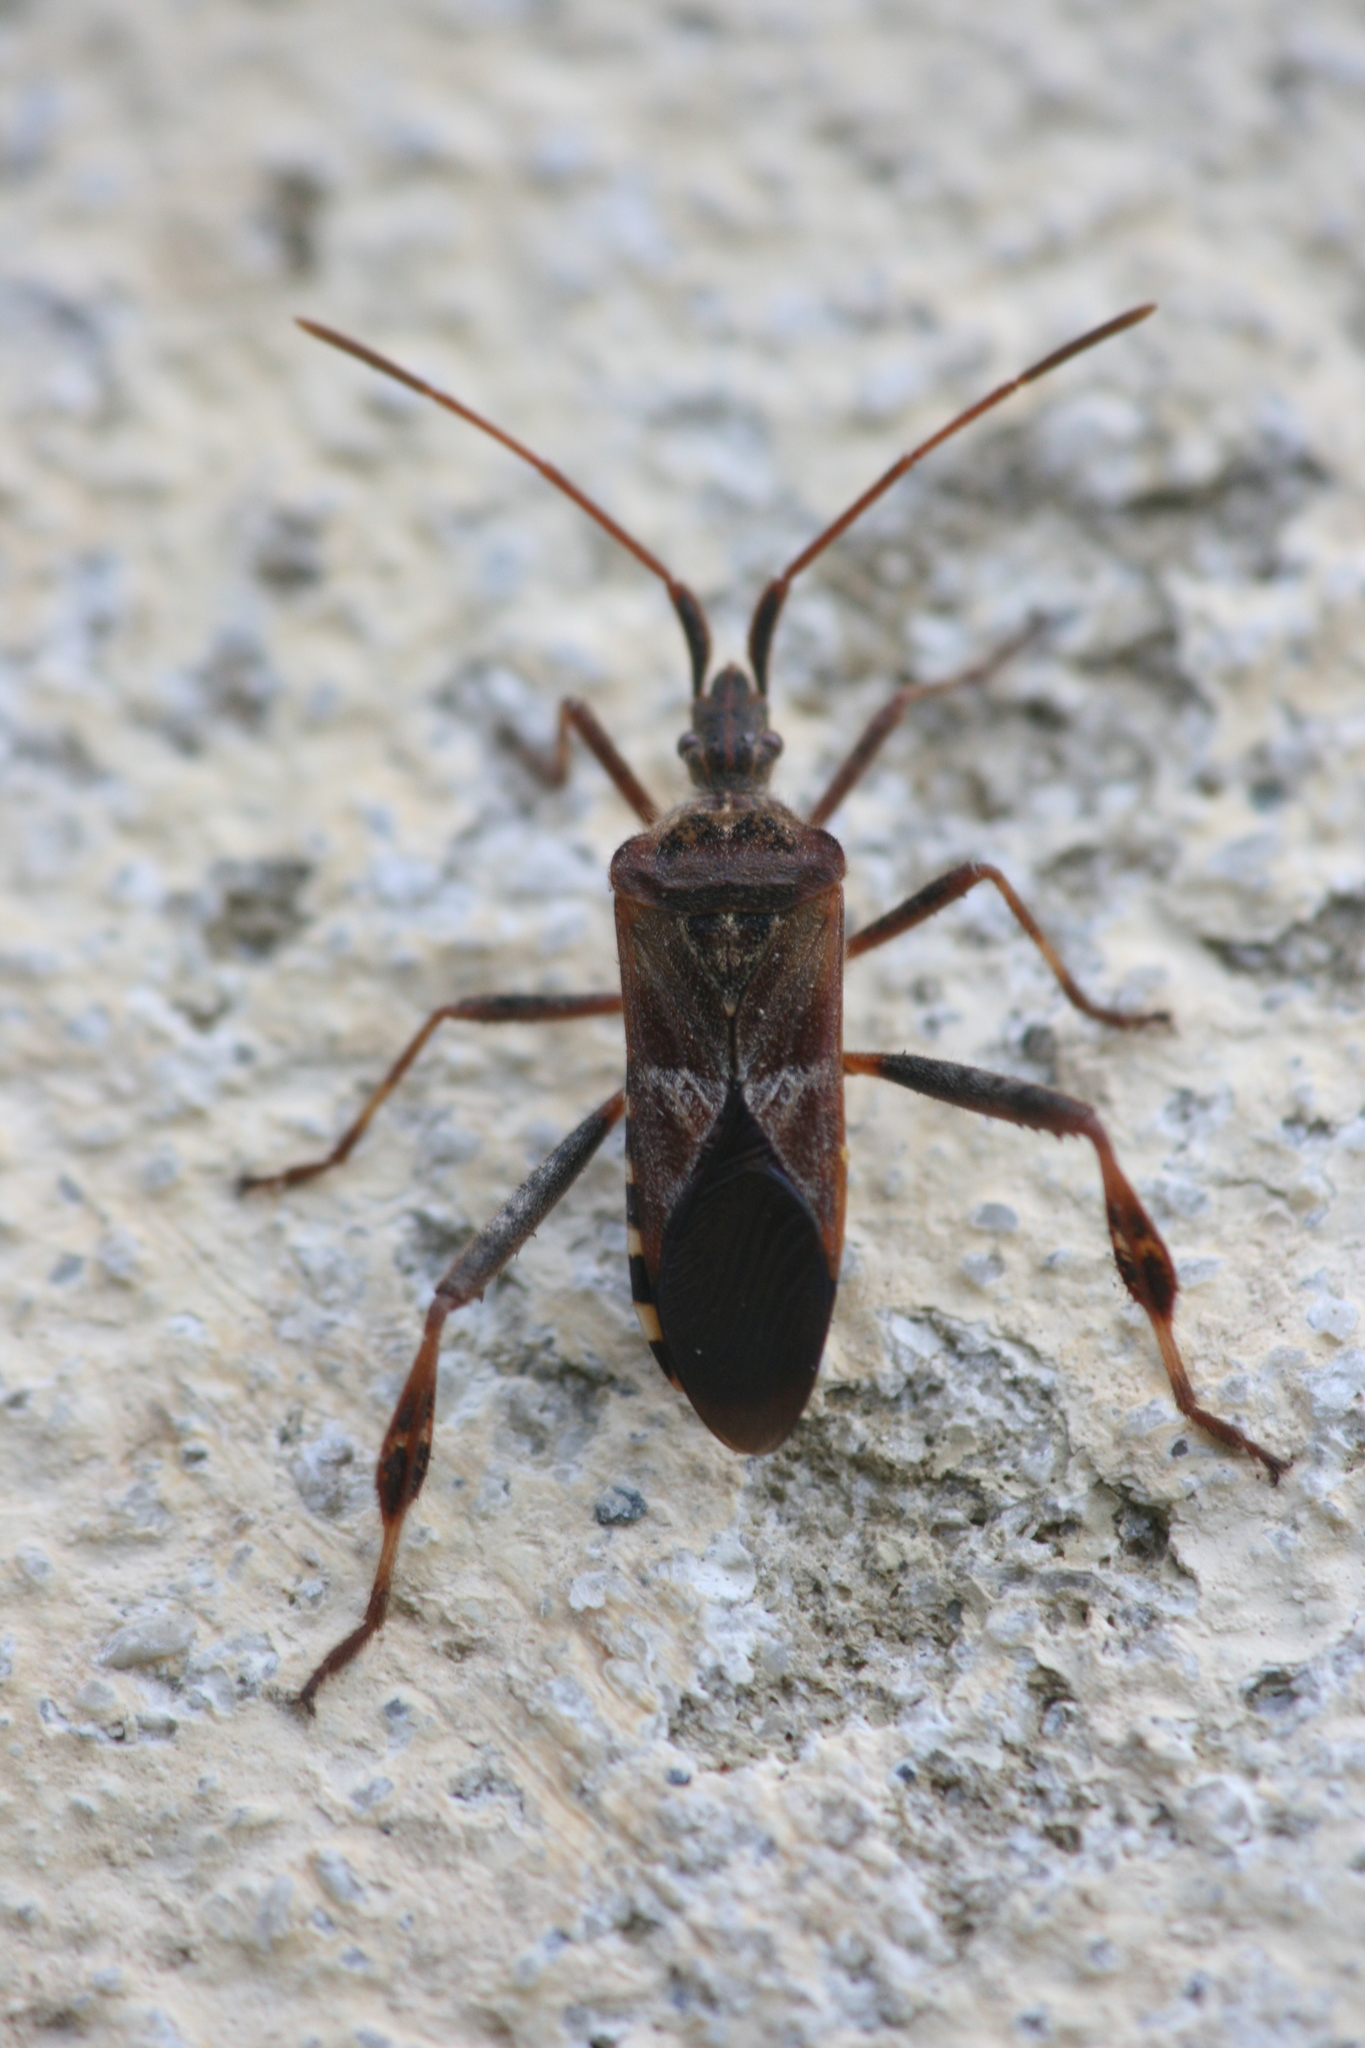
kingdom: Animalia
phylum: Arthropoda
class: Insecta
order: Hemiptera
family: Coreidae
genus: Leptoglossus
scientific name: Leptoglossus occidentalis
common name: Western conifer-seed bug
